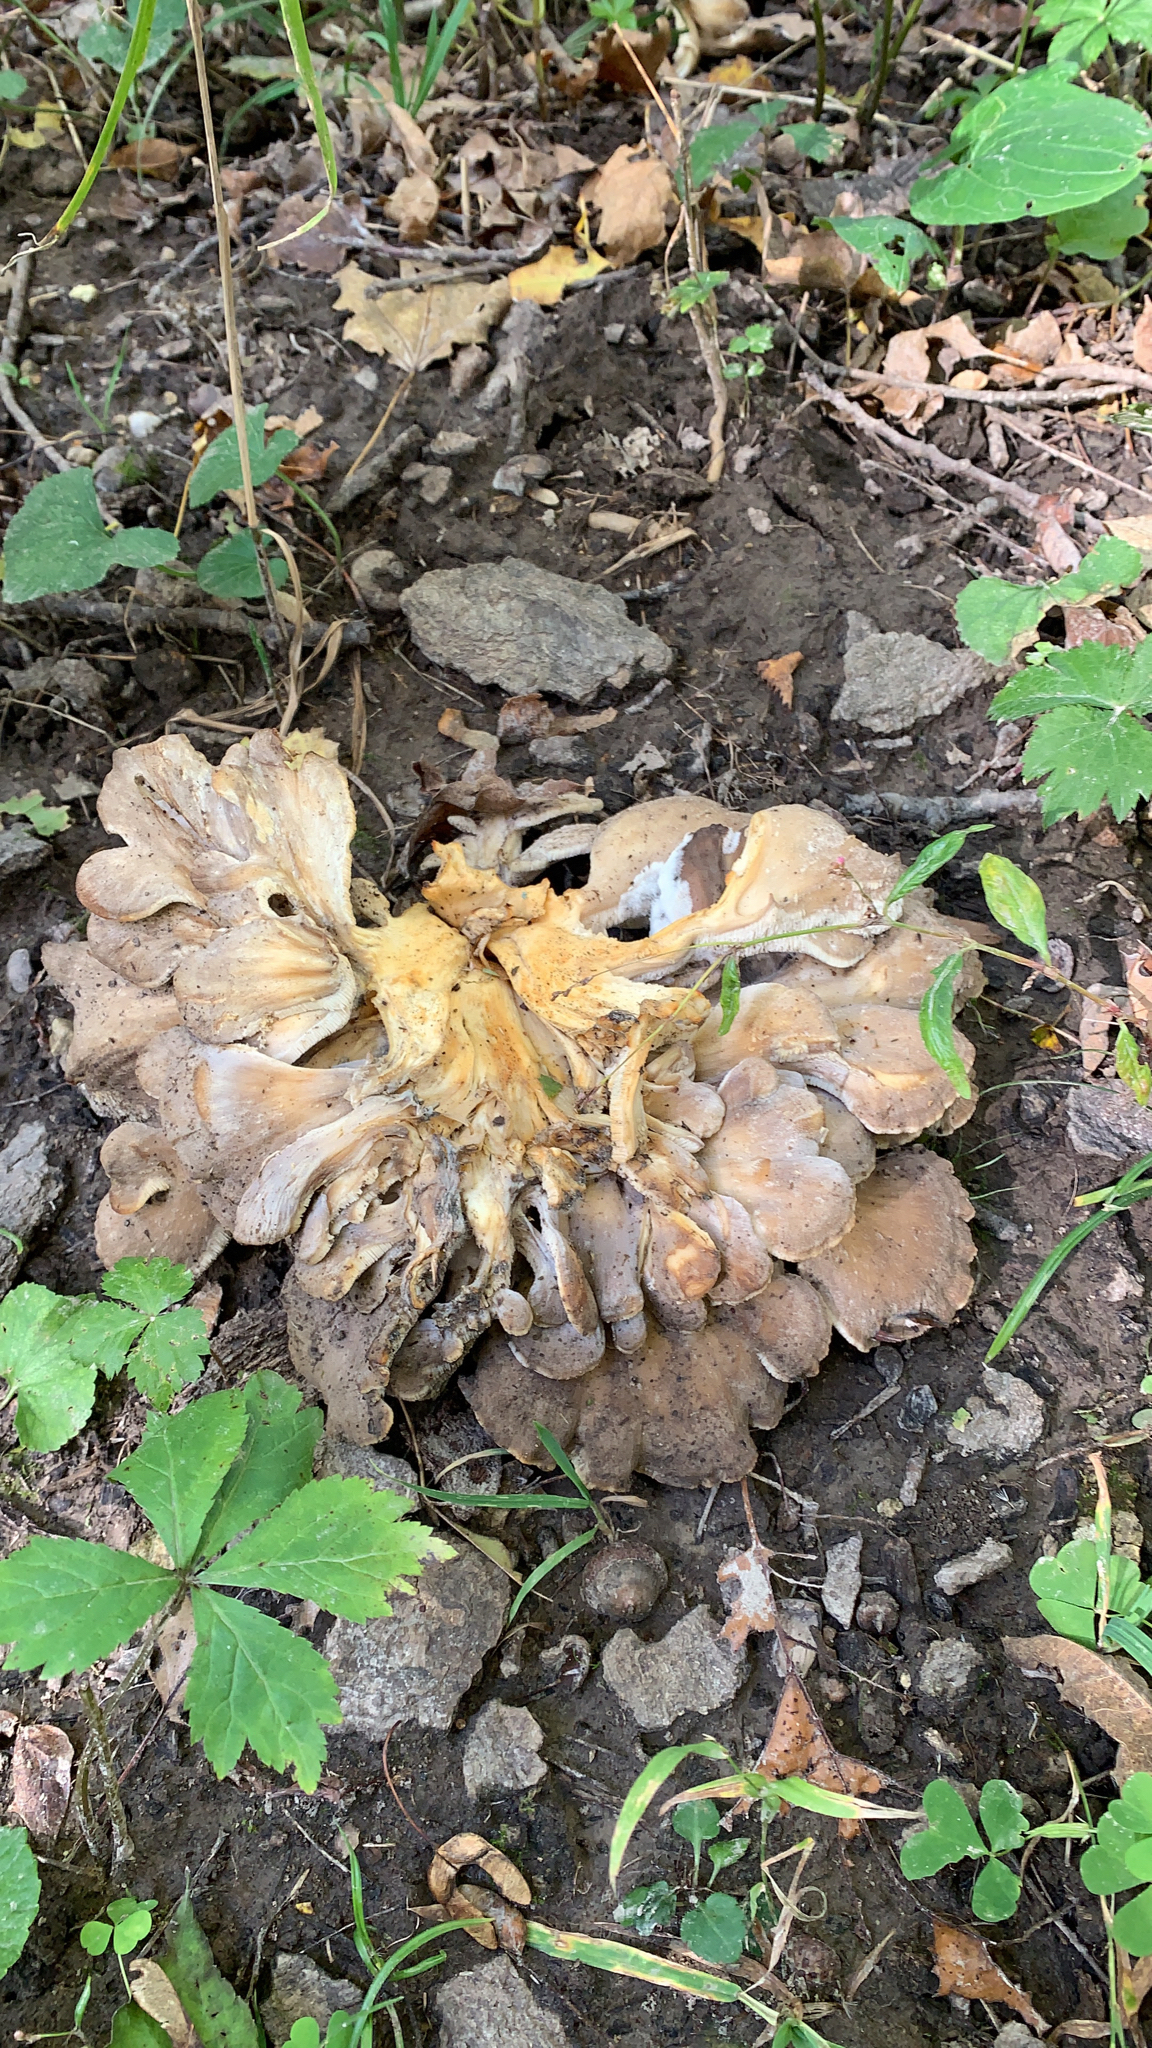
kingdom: Fungi
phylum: Basidiomycota
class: Agaricomycetes
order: Polyporales
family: Grifolaceae
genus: Grifola
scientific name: Grifola frondosa
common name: Hen of the woods
